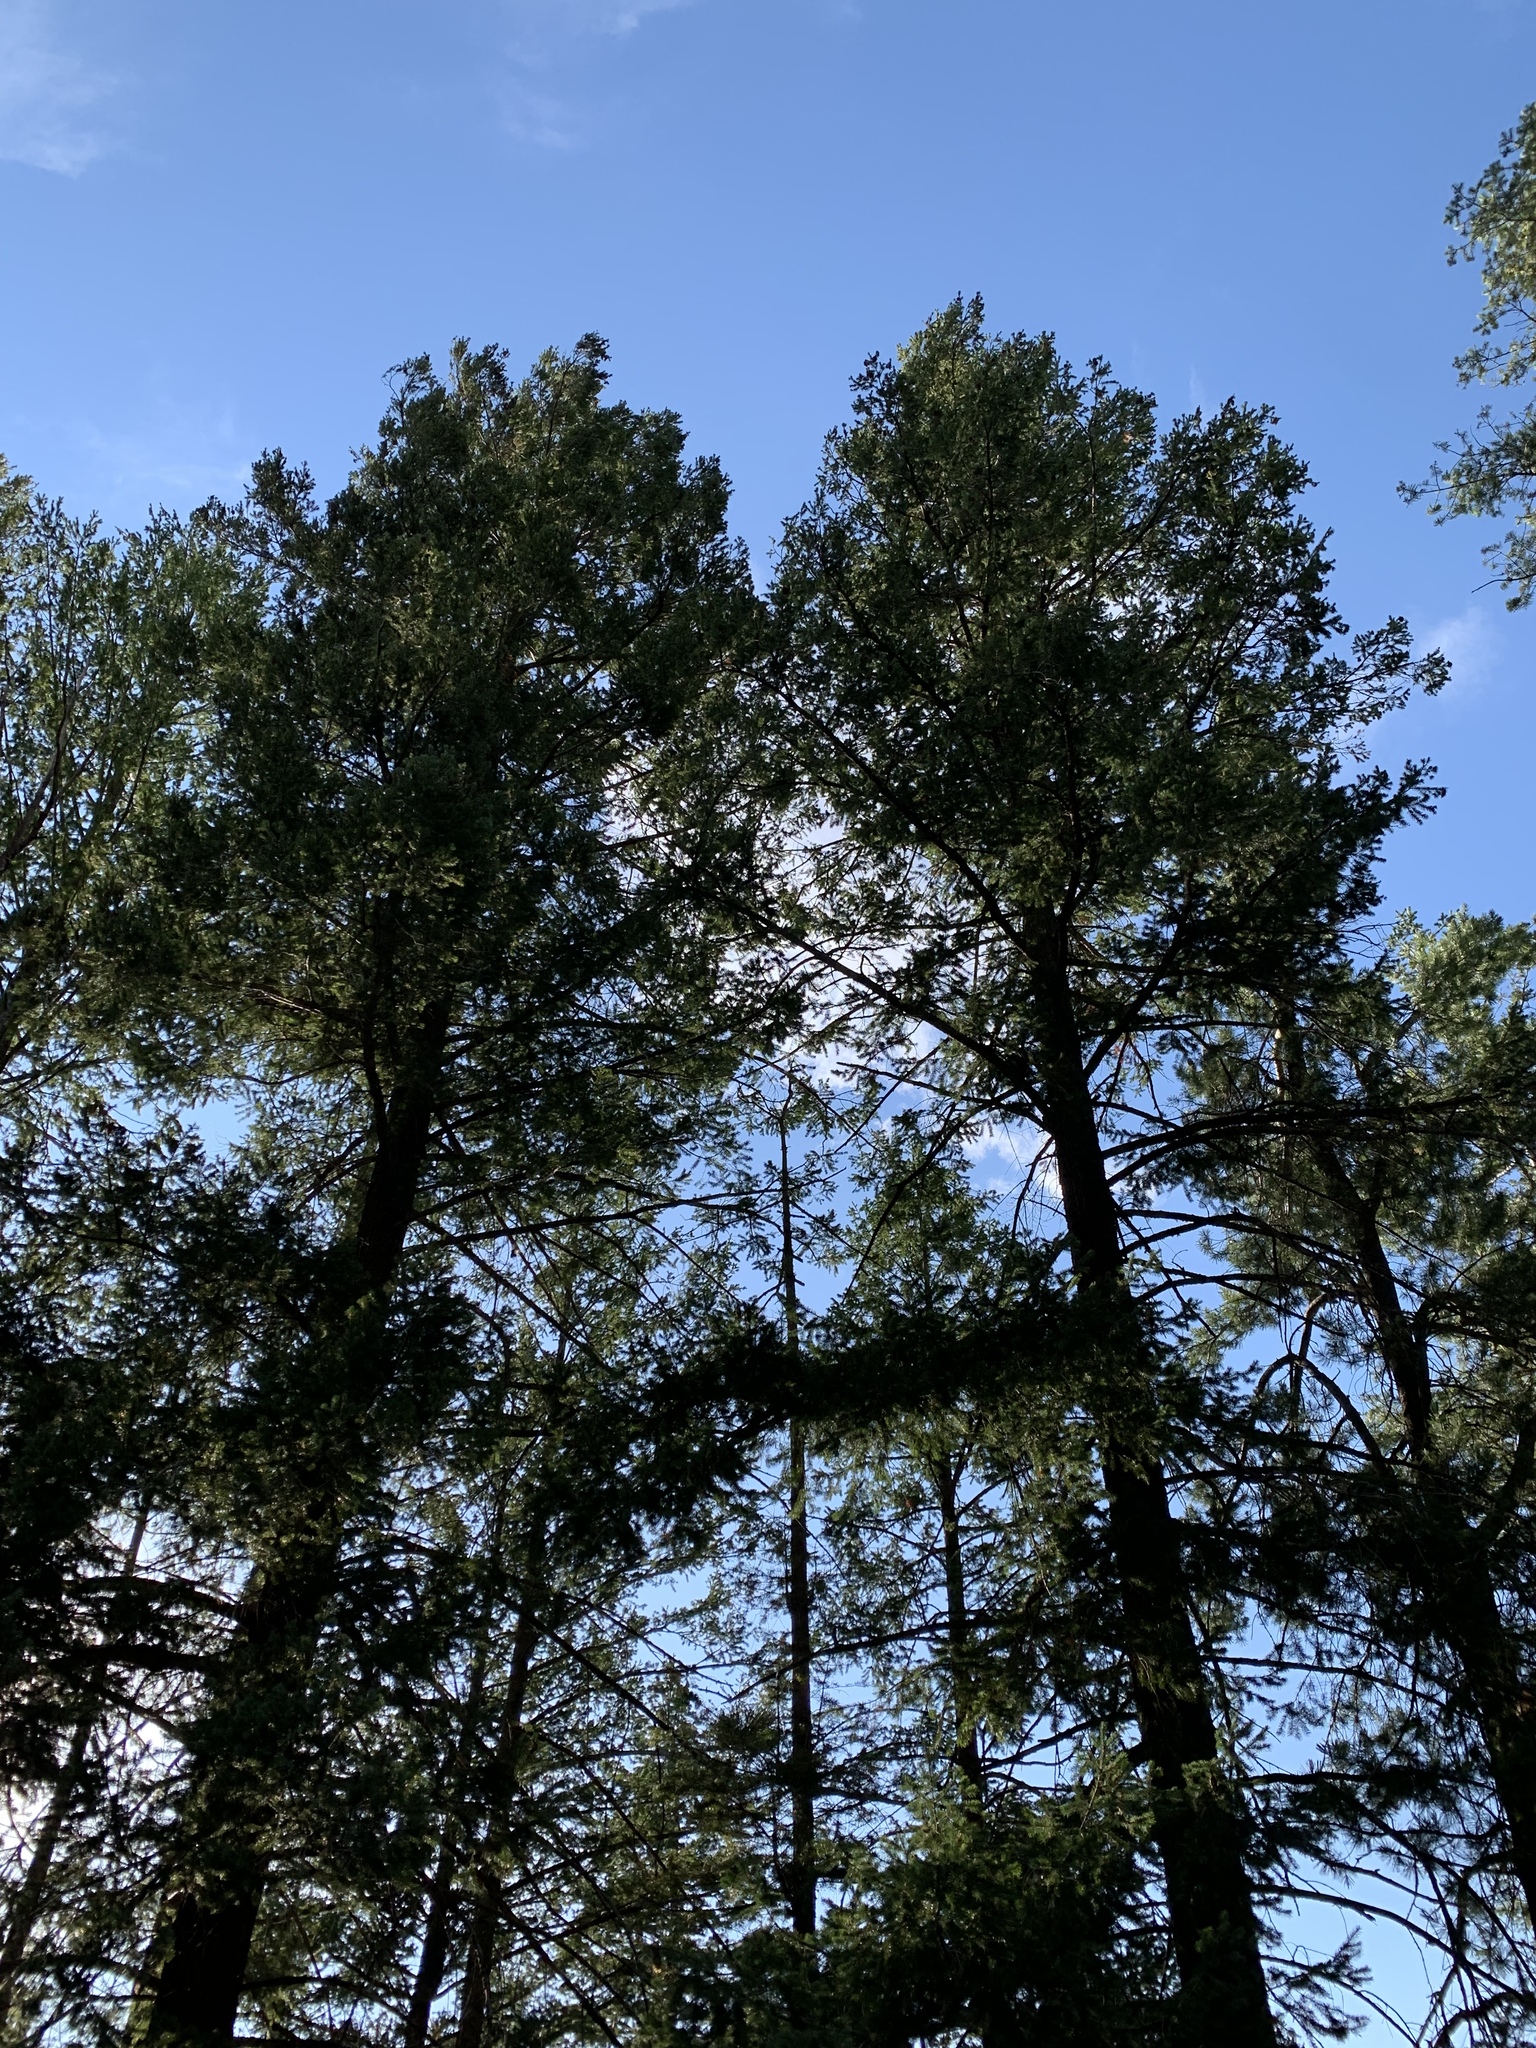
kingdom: Plantae
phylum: Tracheophyta
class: Pinopsida
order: Pinales
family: Pinaceae
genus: Pseudotsuga
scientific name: Pseudotsuga menziesii
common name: Douglas fir
